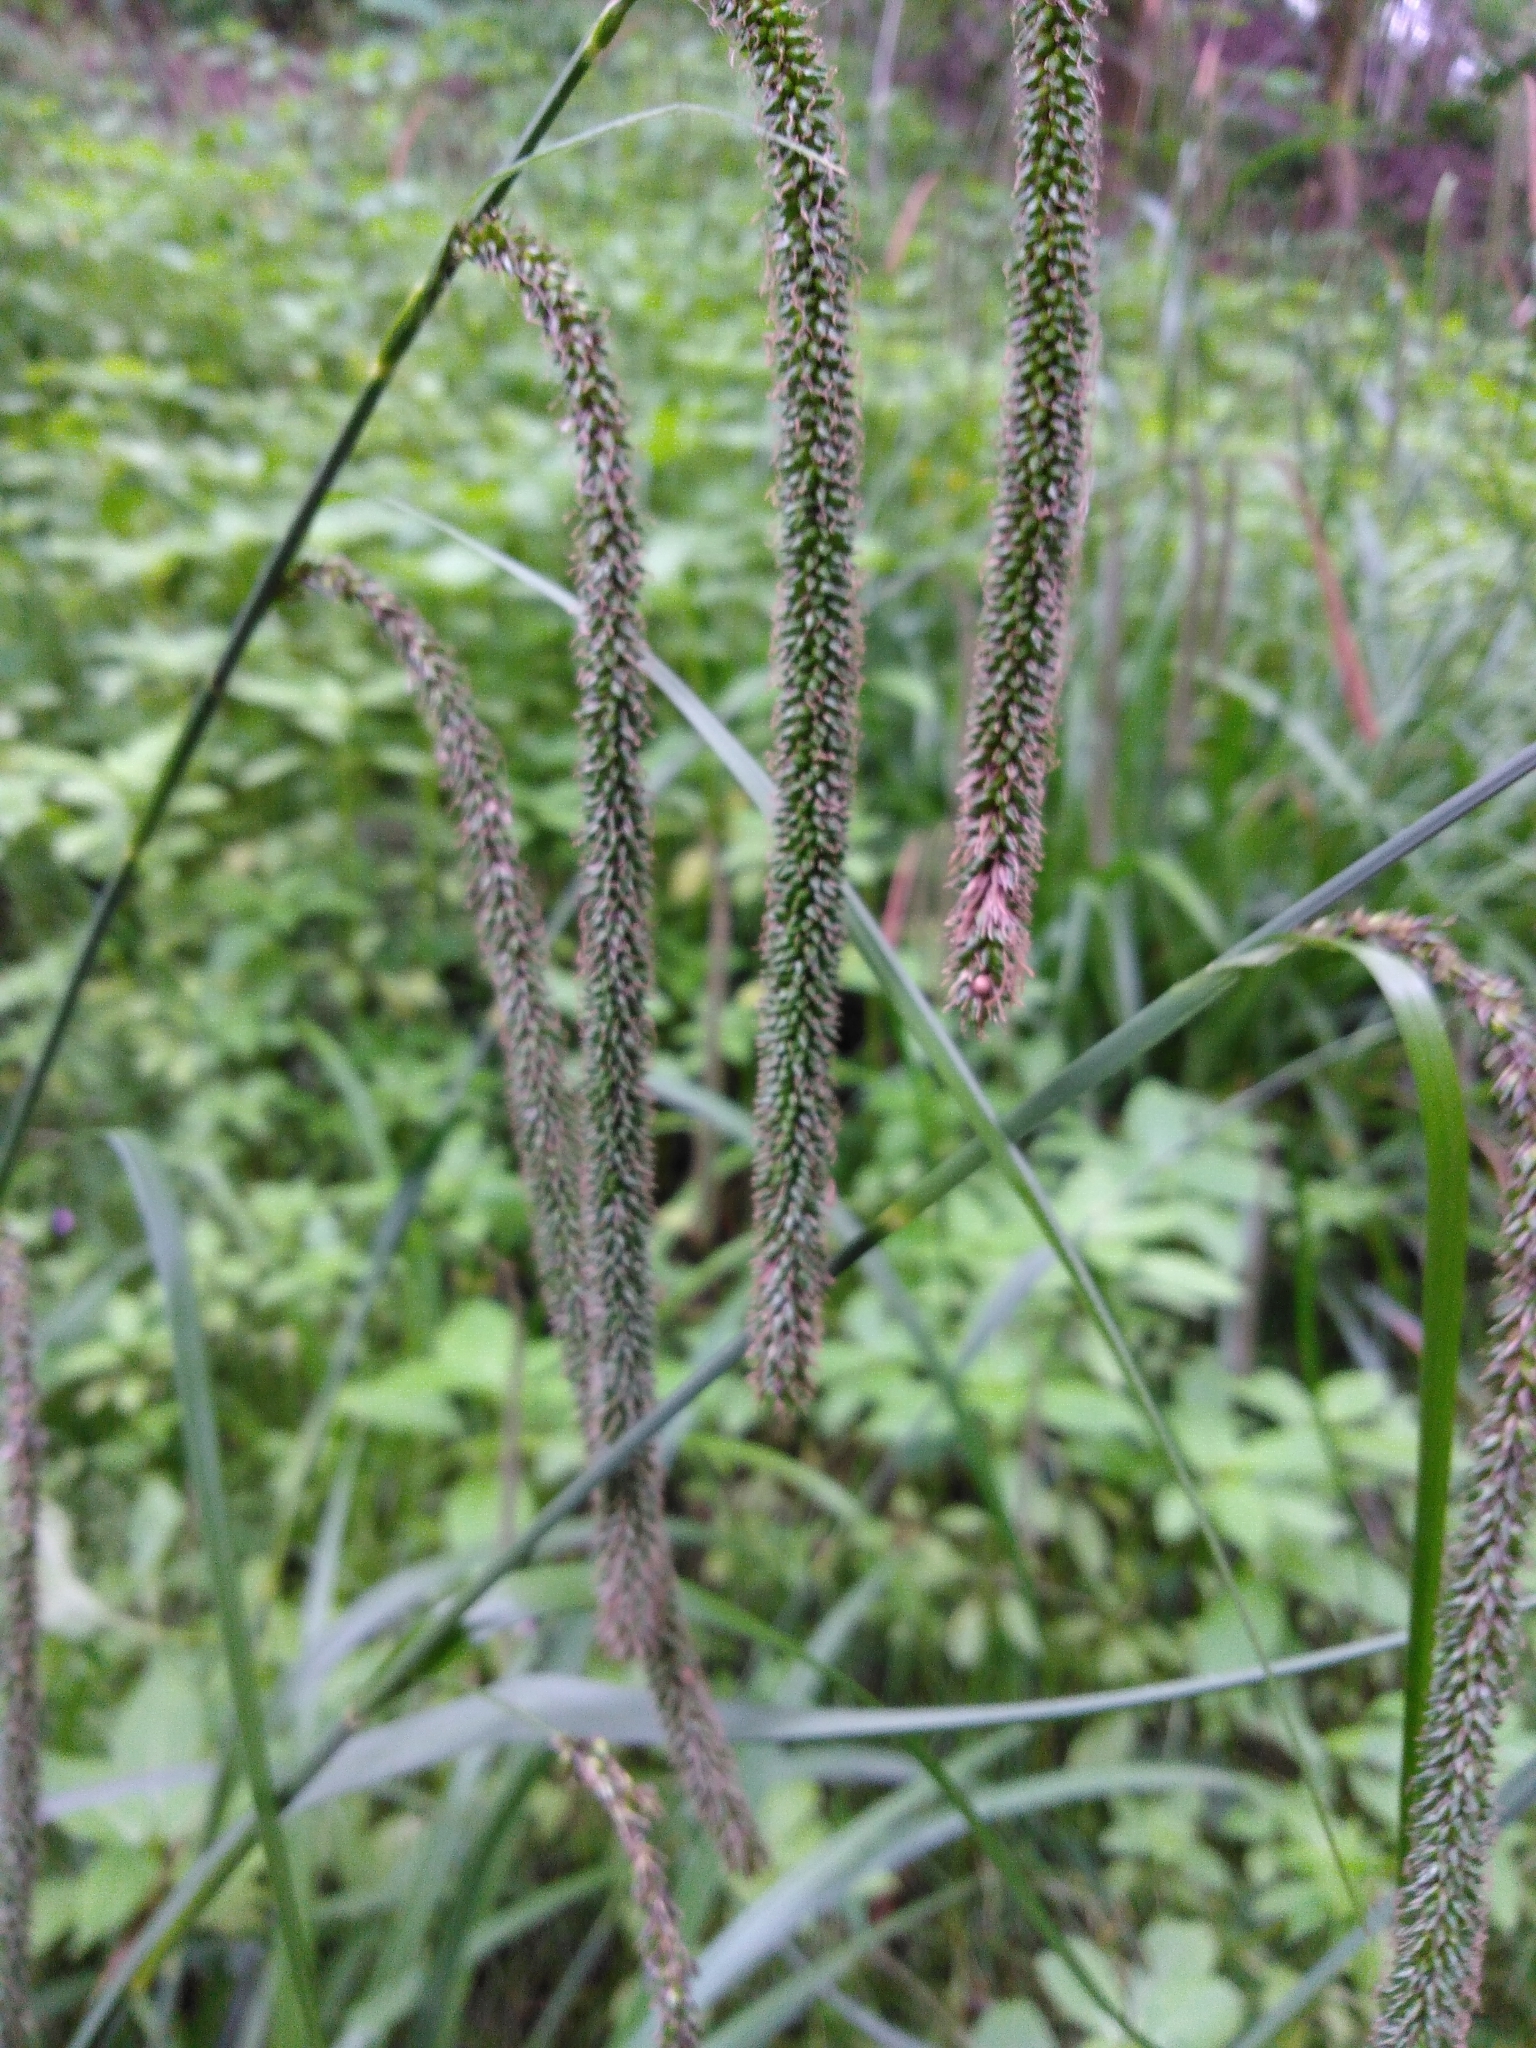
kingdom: Plantae
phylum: Tracheophyta
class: Liliopsida
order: Poales
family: Cyperaceae
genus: Carex
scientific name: Carex pendula
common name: Pendulous sedge
